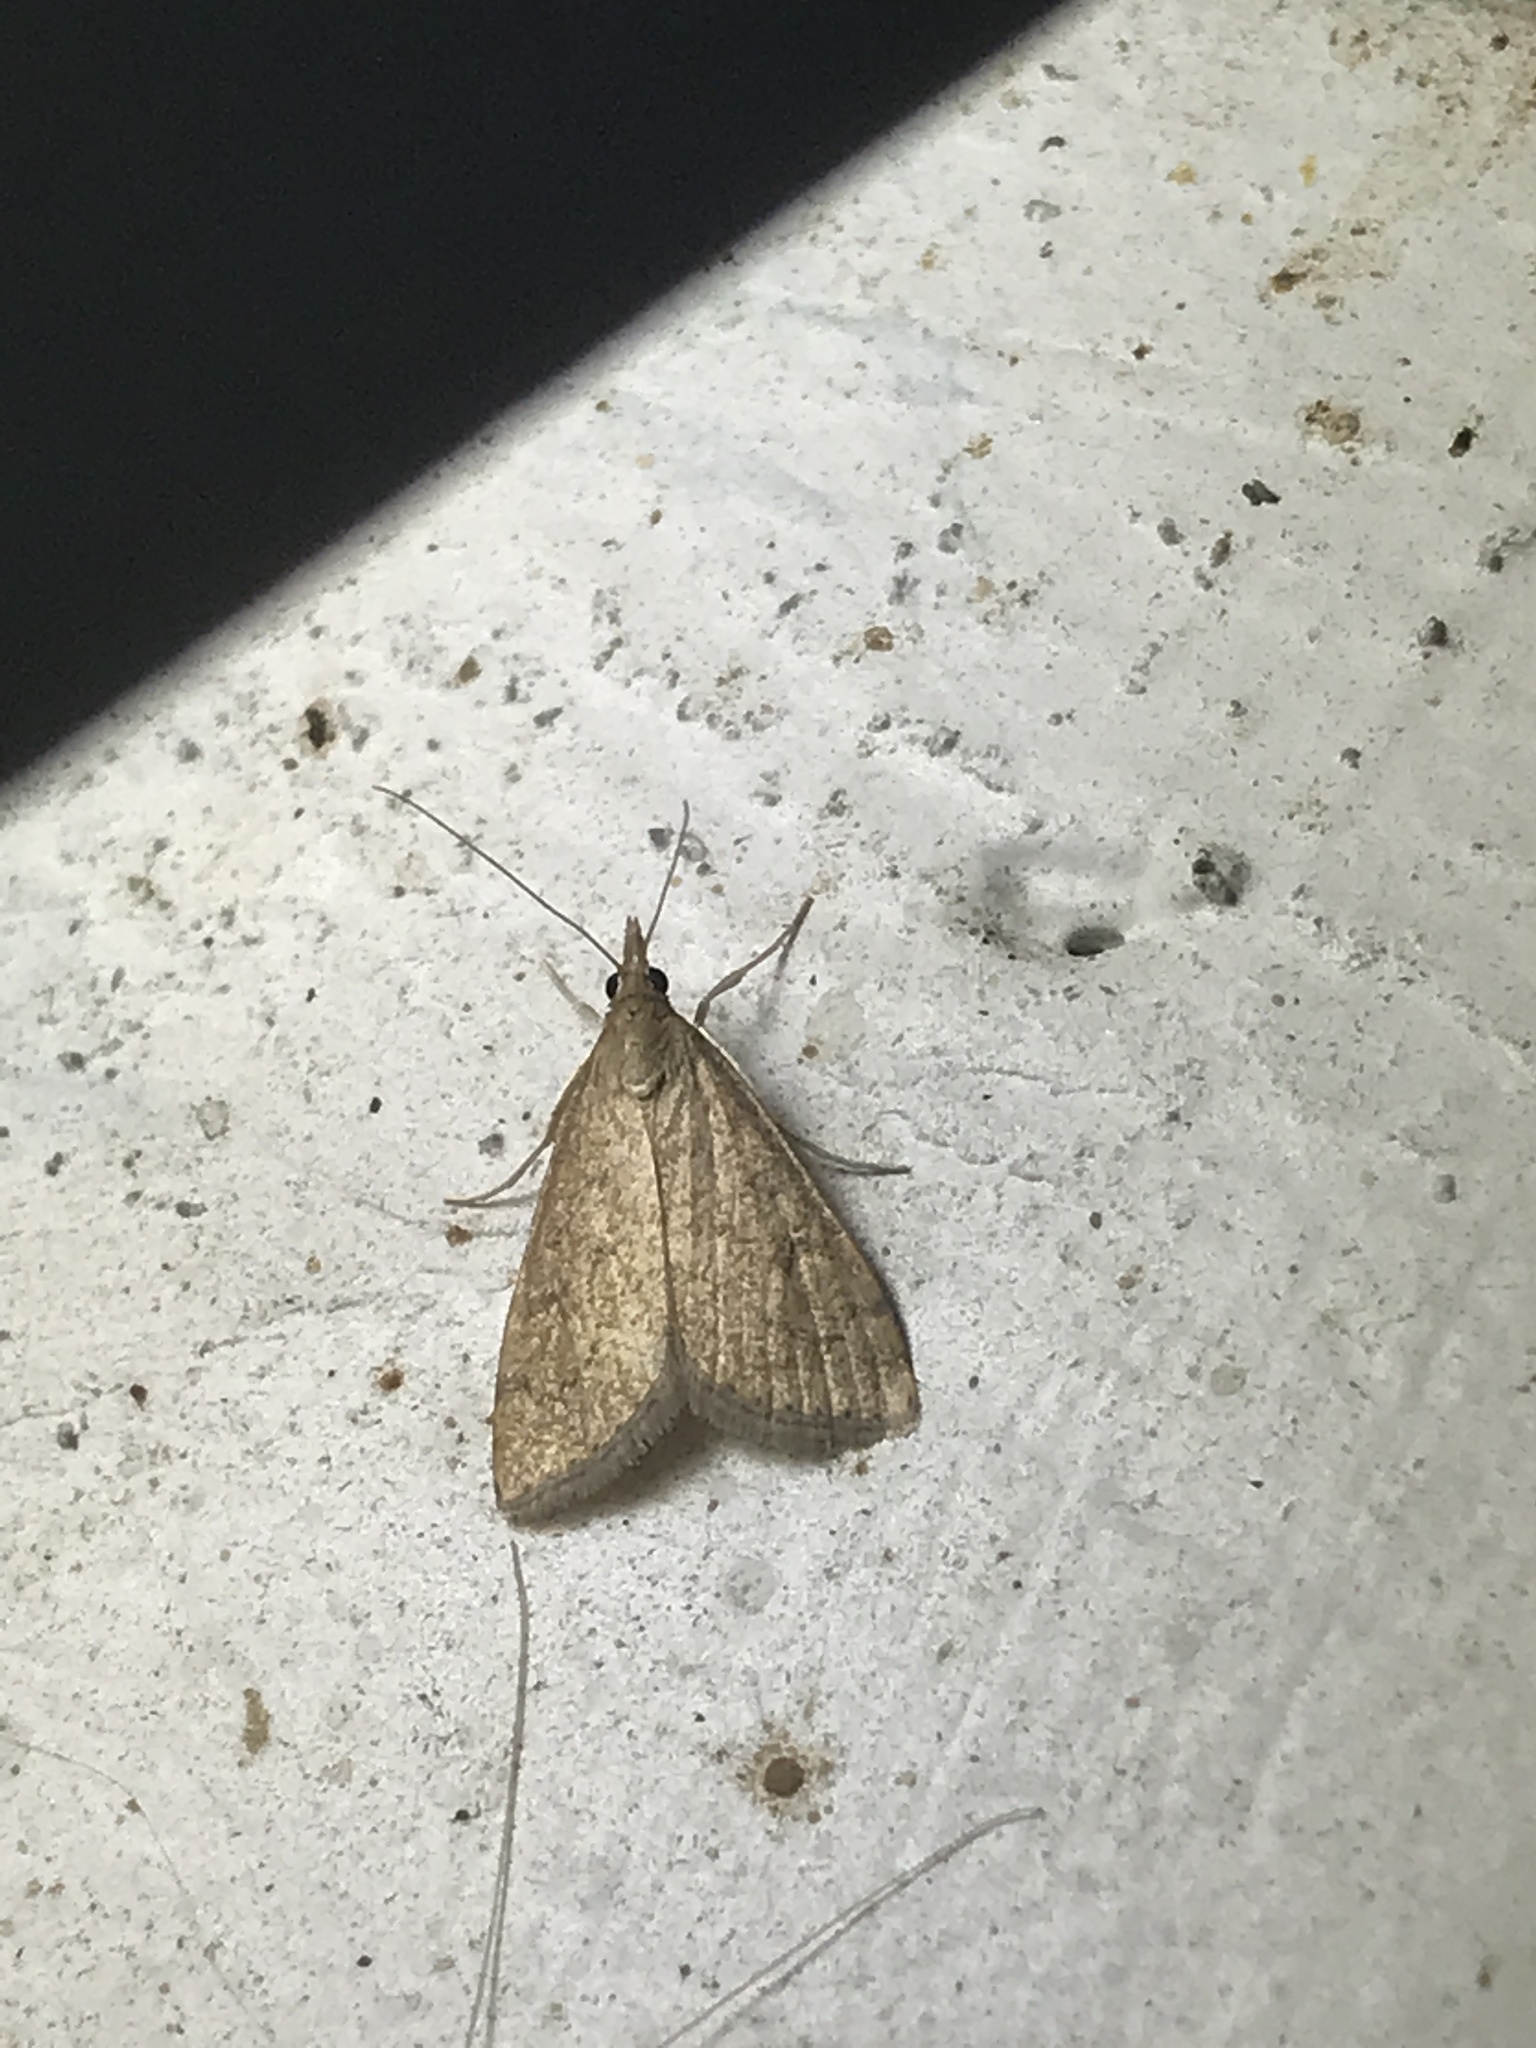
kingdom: Animalia
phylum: Arthropoda
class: Insecta
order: Lepidoptera
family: Crambidae
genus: Udea
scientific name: Udea rubigalis
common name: Celery leaftier moth
